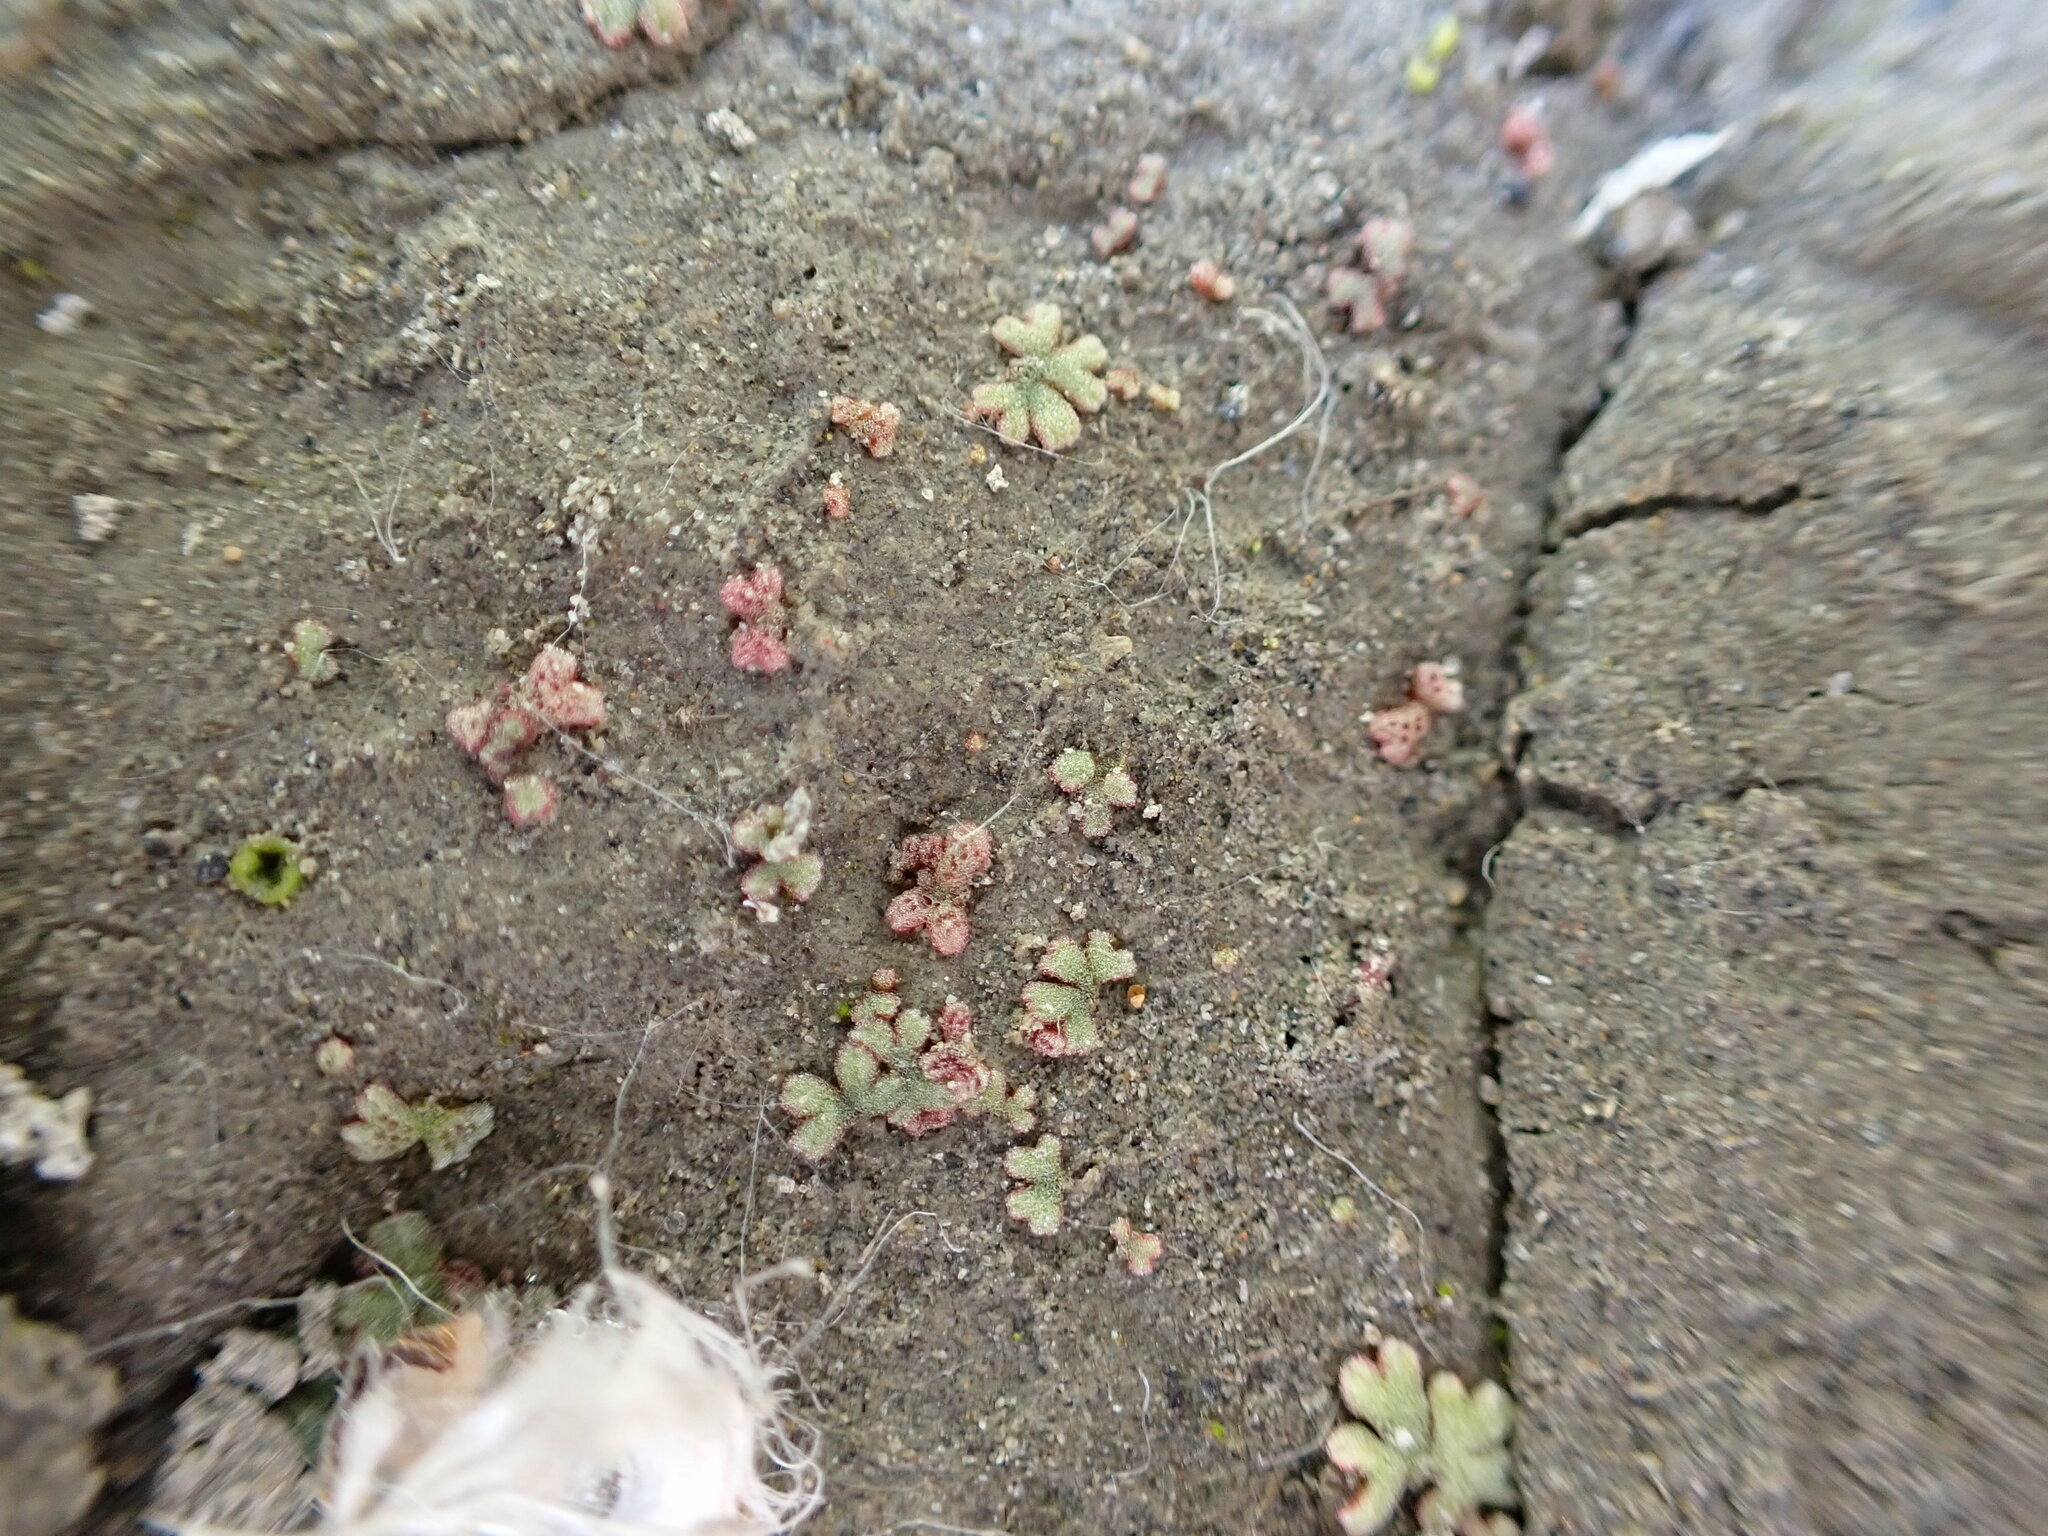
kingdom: Plantae
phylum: Marchantiophyta
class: Marchantiopsida
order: Marchantiales
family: Ricciaceae
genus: Riccia
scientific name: Riccia frostii
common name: Frost s crystalwort
